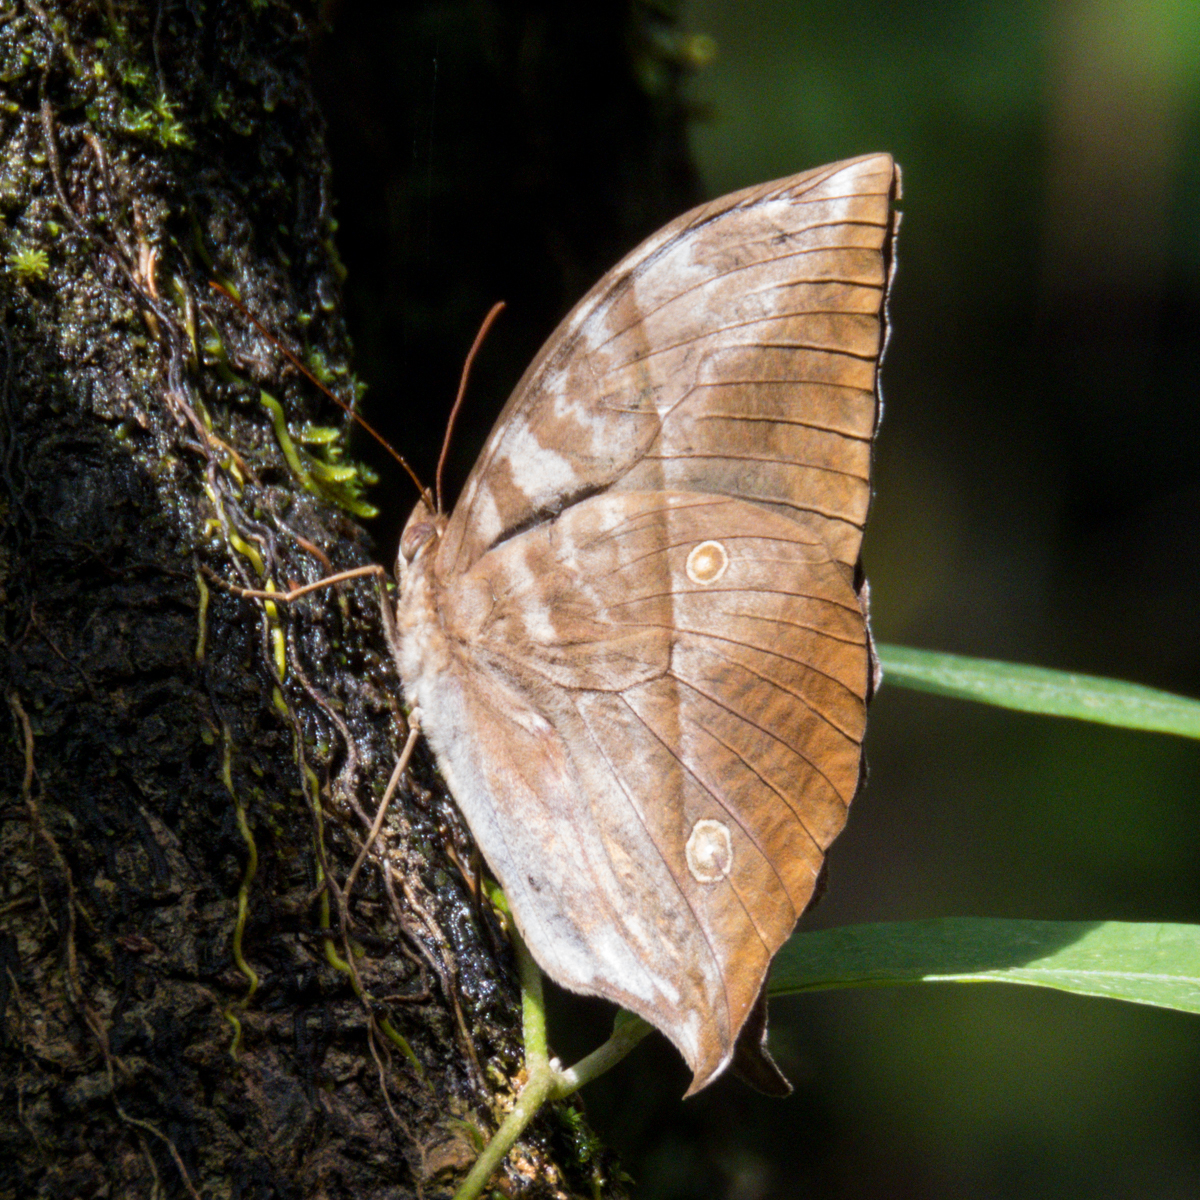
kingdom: Animalia
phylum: Arthropoda
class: Insecta
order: Lepidoptera
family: Nymphalidae
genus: Zeuxidia
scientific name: Zeuxidia
